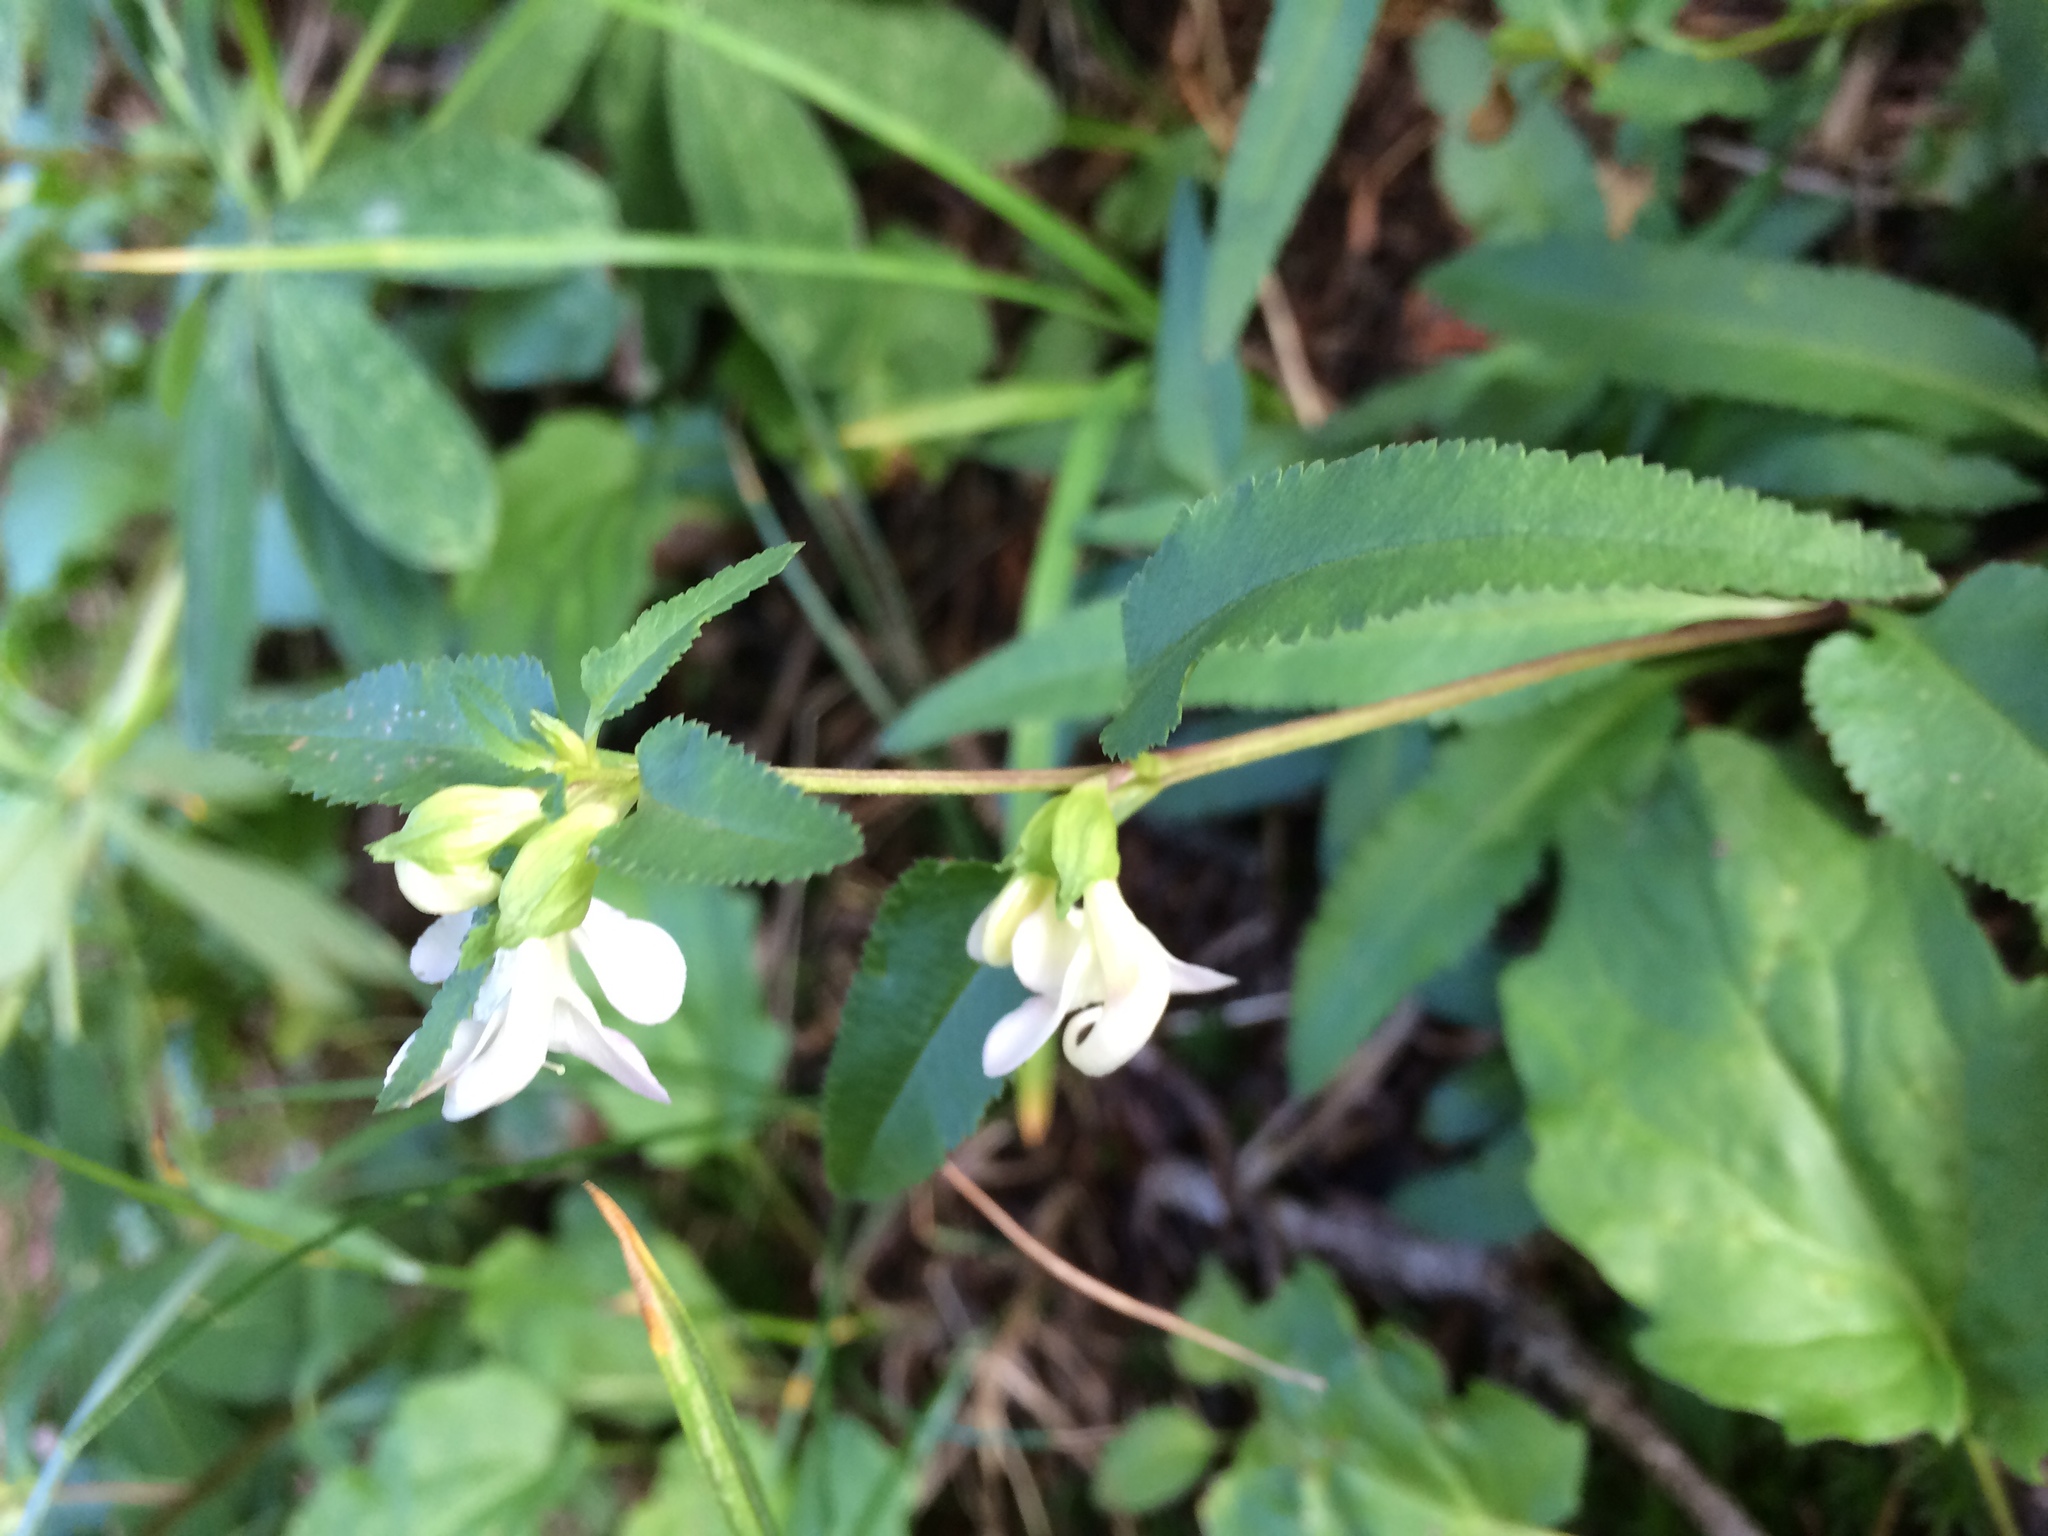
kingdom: Plantae
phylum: Tracheophyta
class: Magnoliopsida
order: Lamiales
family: Orobanchaceae
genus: Pedicularis
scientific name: Pedicularis racemosa
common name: Leafy lousewort
